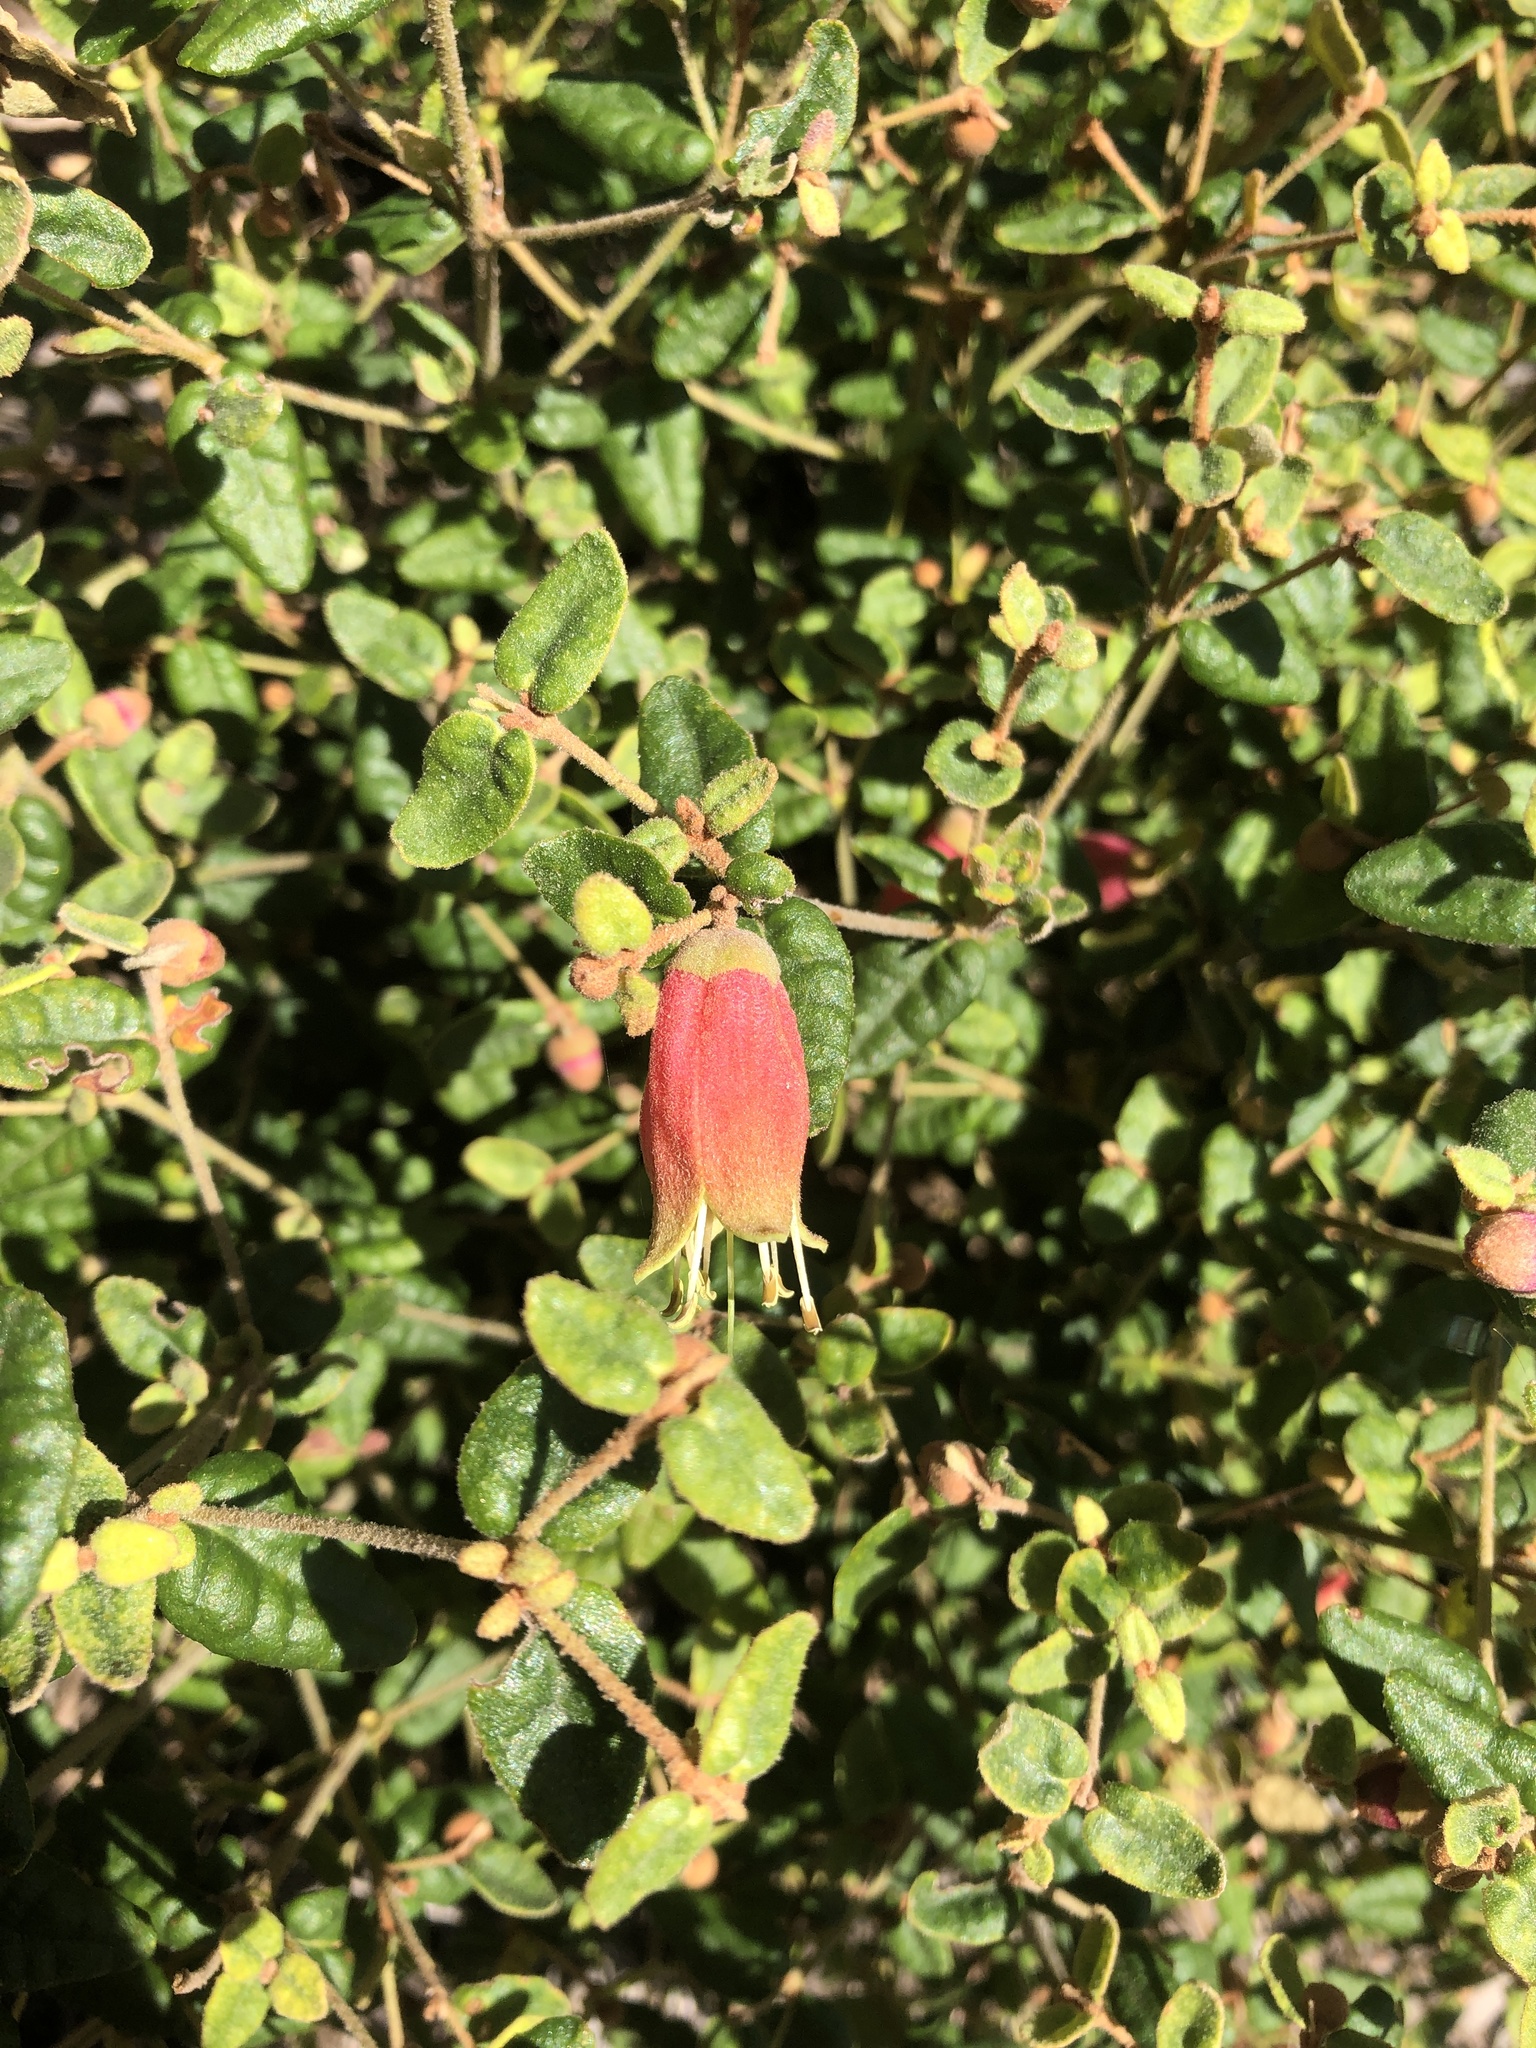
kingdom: Plantae
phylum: Tracheophyta
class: Magnoliopsida
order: Sapindales
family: Rutaceae
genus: Correa
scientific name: Correa reflexa
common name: Common correa
